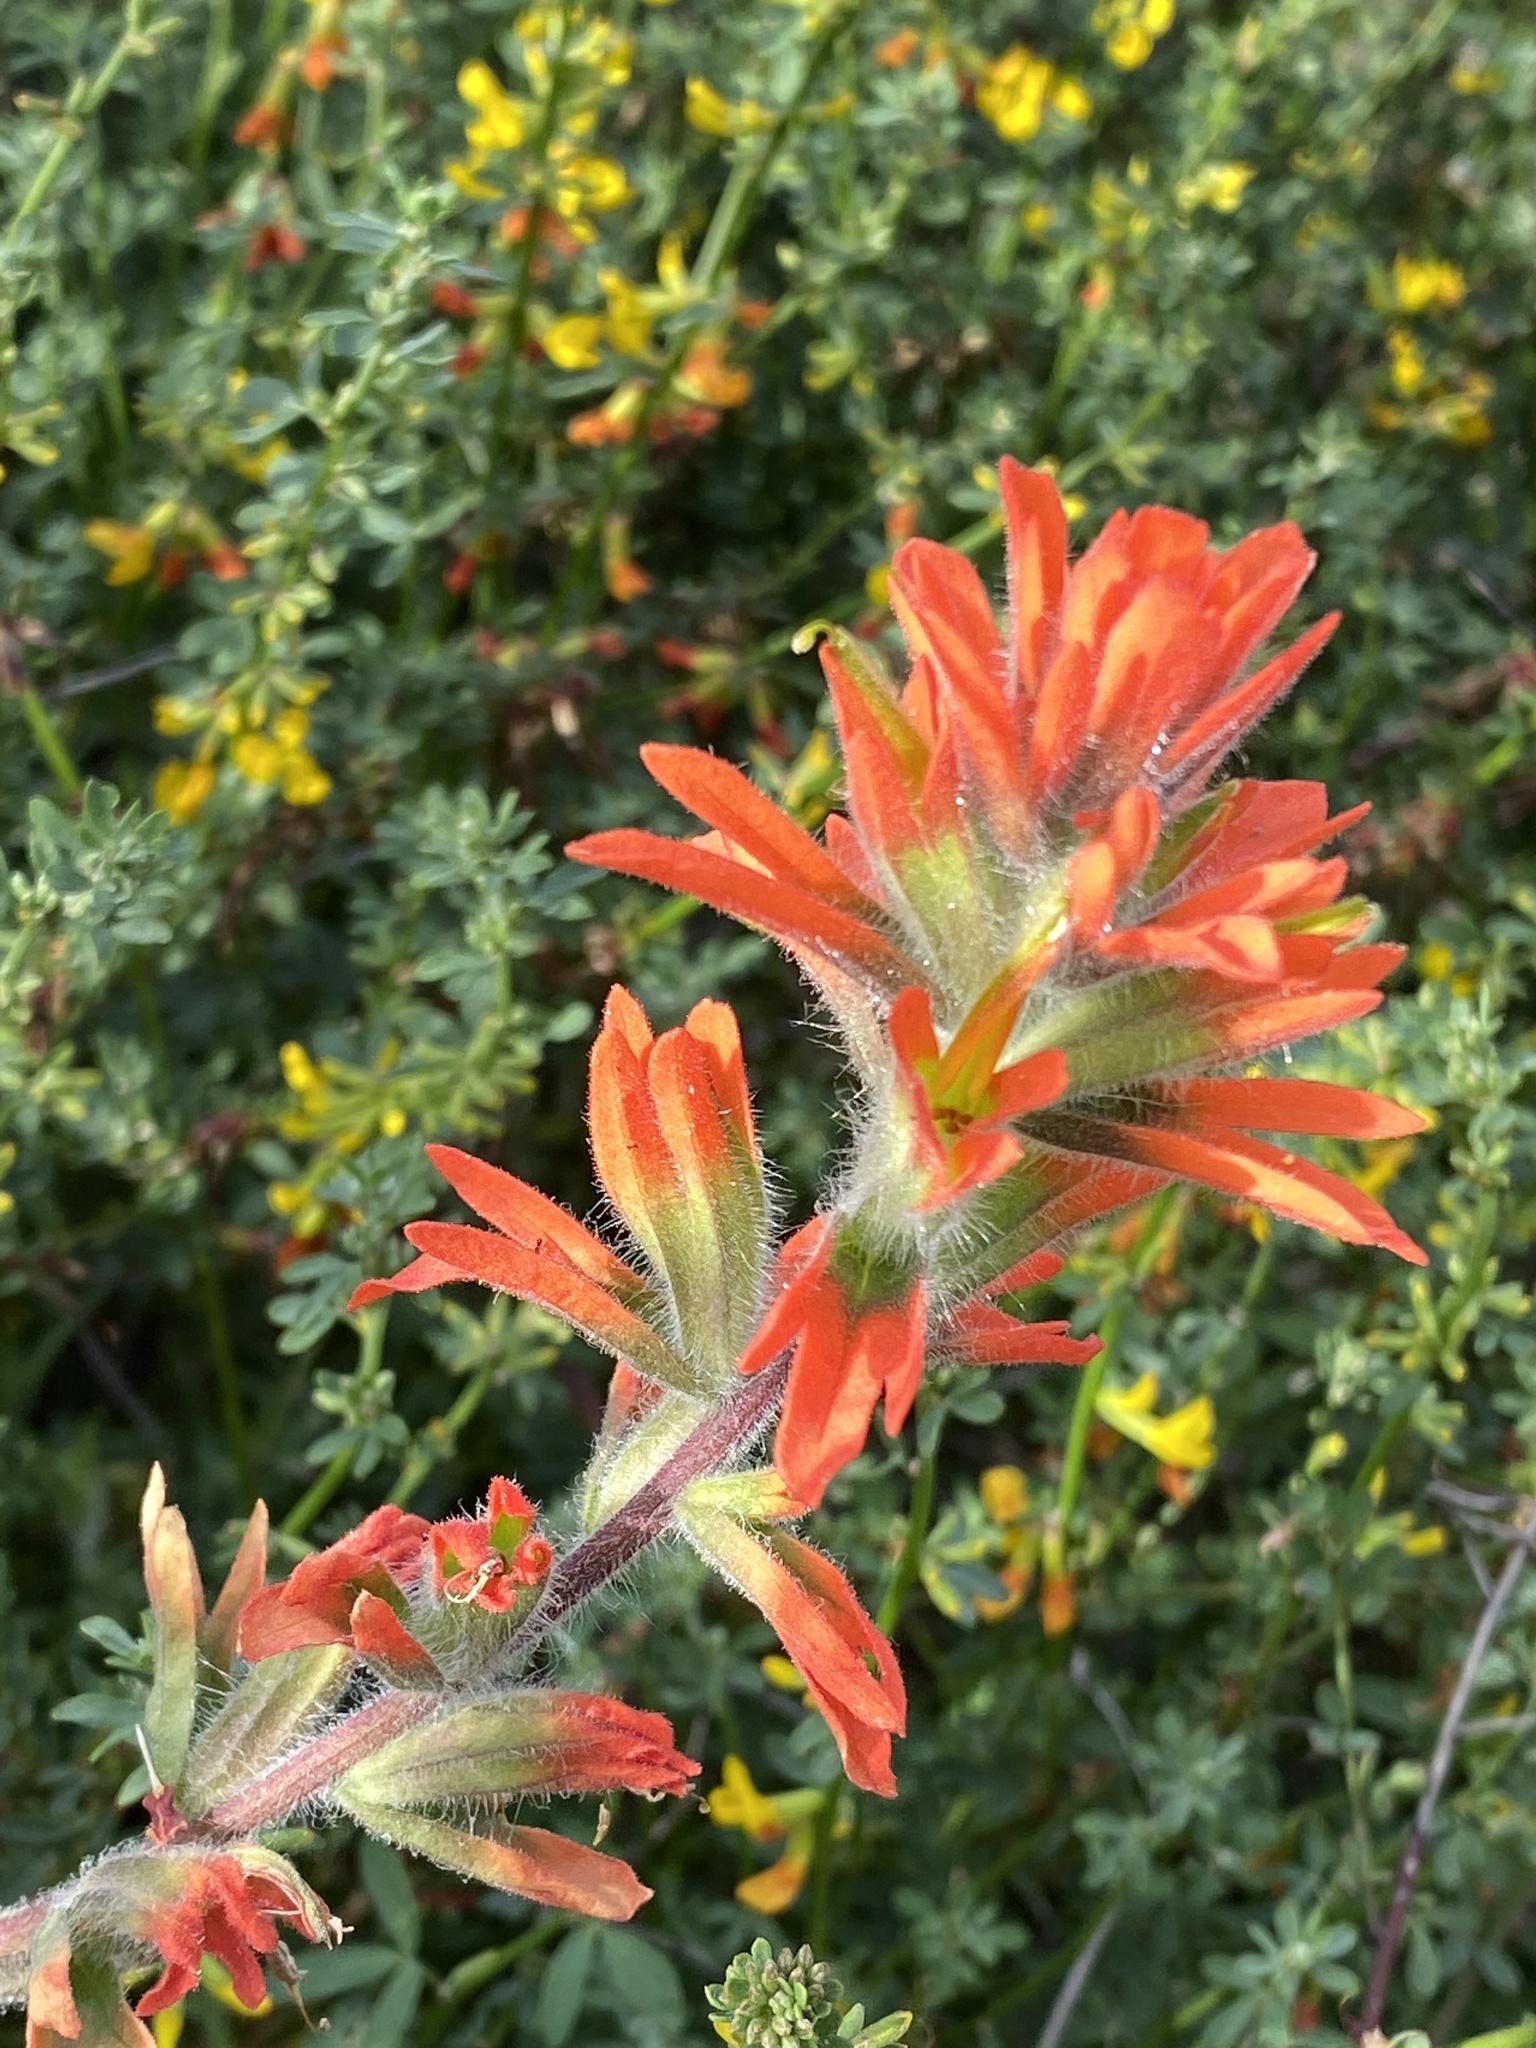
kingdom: Plantae
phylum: Tracheophyta
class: Magnoliopsida
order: Lamiales
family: Orobanchaceae
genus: Castilleja
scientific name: Castilleja affinis
